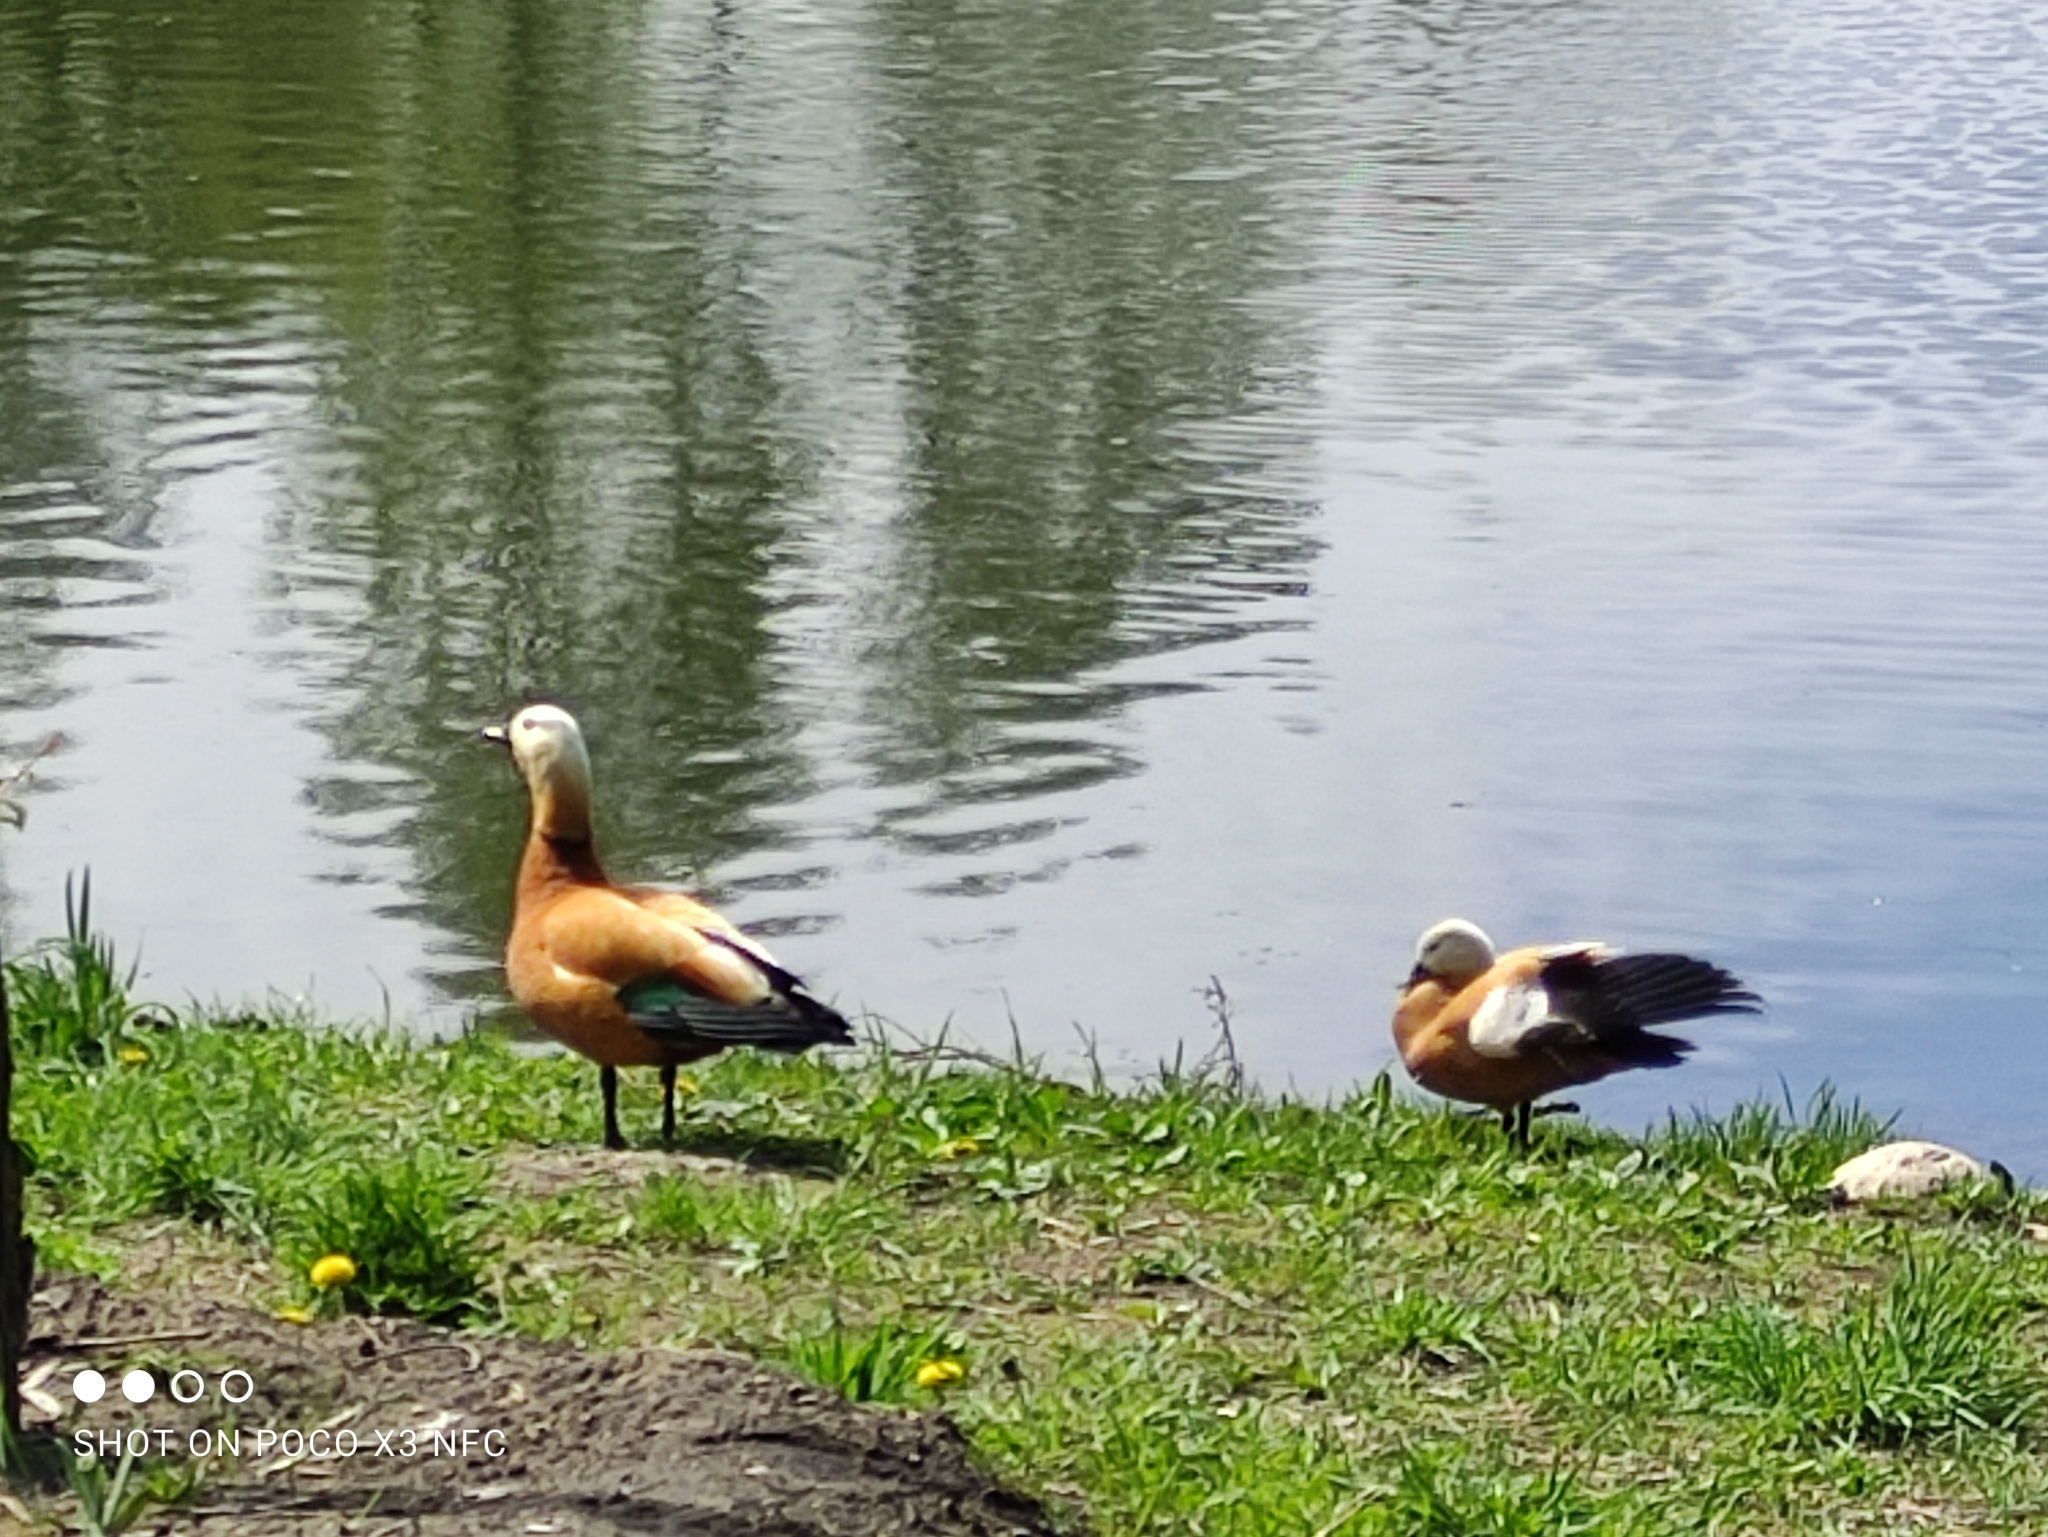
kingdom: Animalia
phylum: Chordata
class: Aves
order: Anseriformes
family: Anatidae
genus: Tadorna
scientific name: Tadorna ferruginea
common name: Ruddy shelduck
